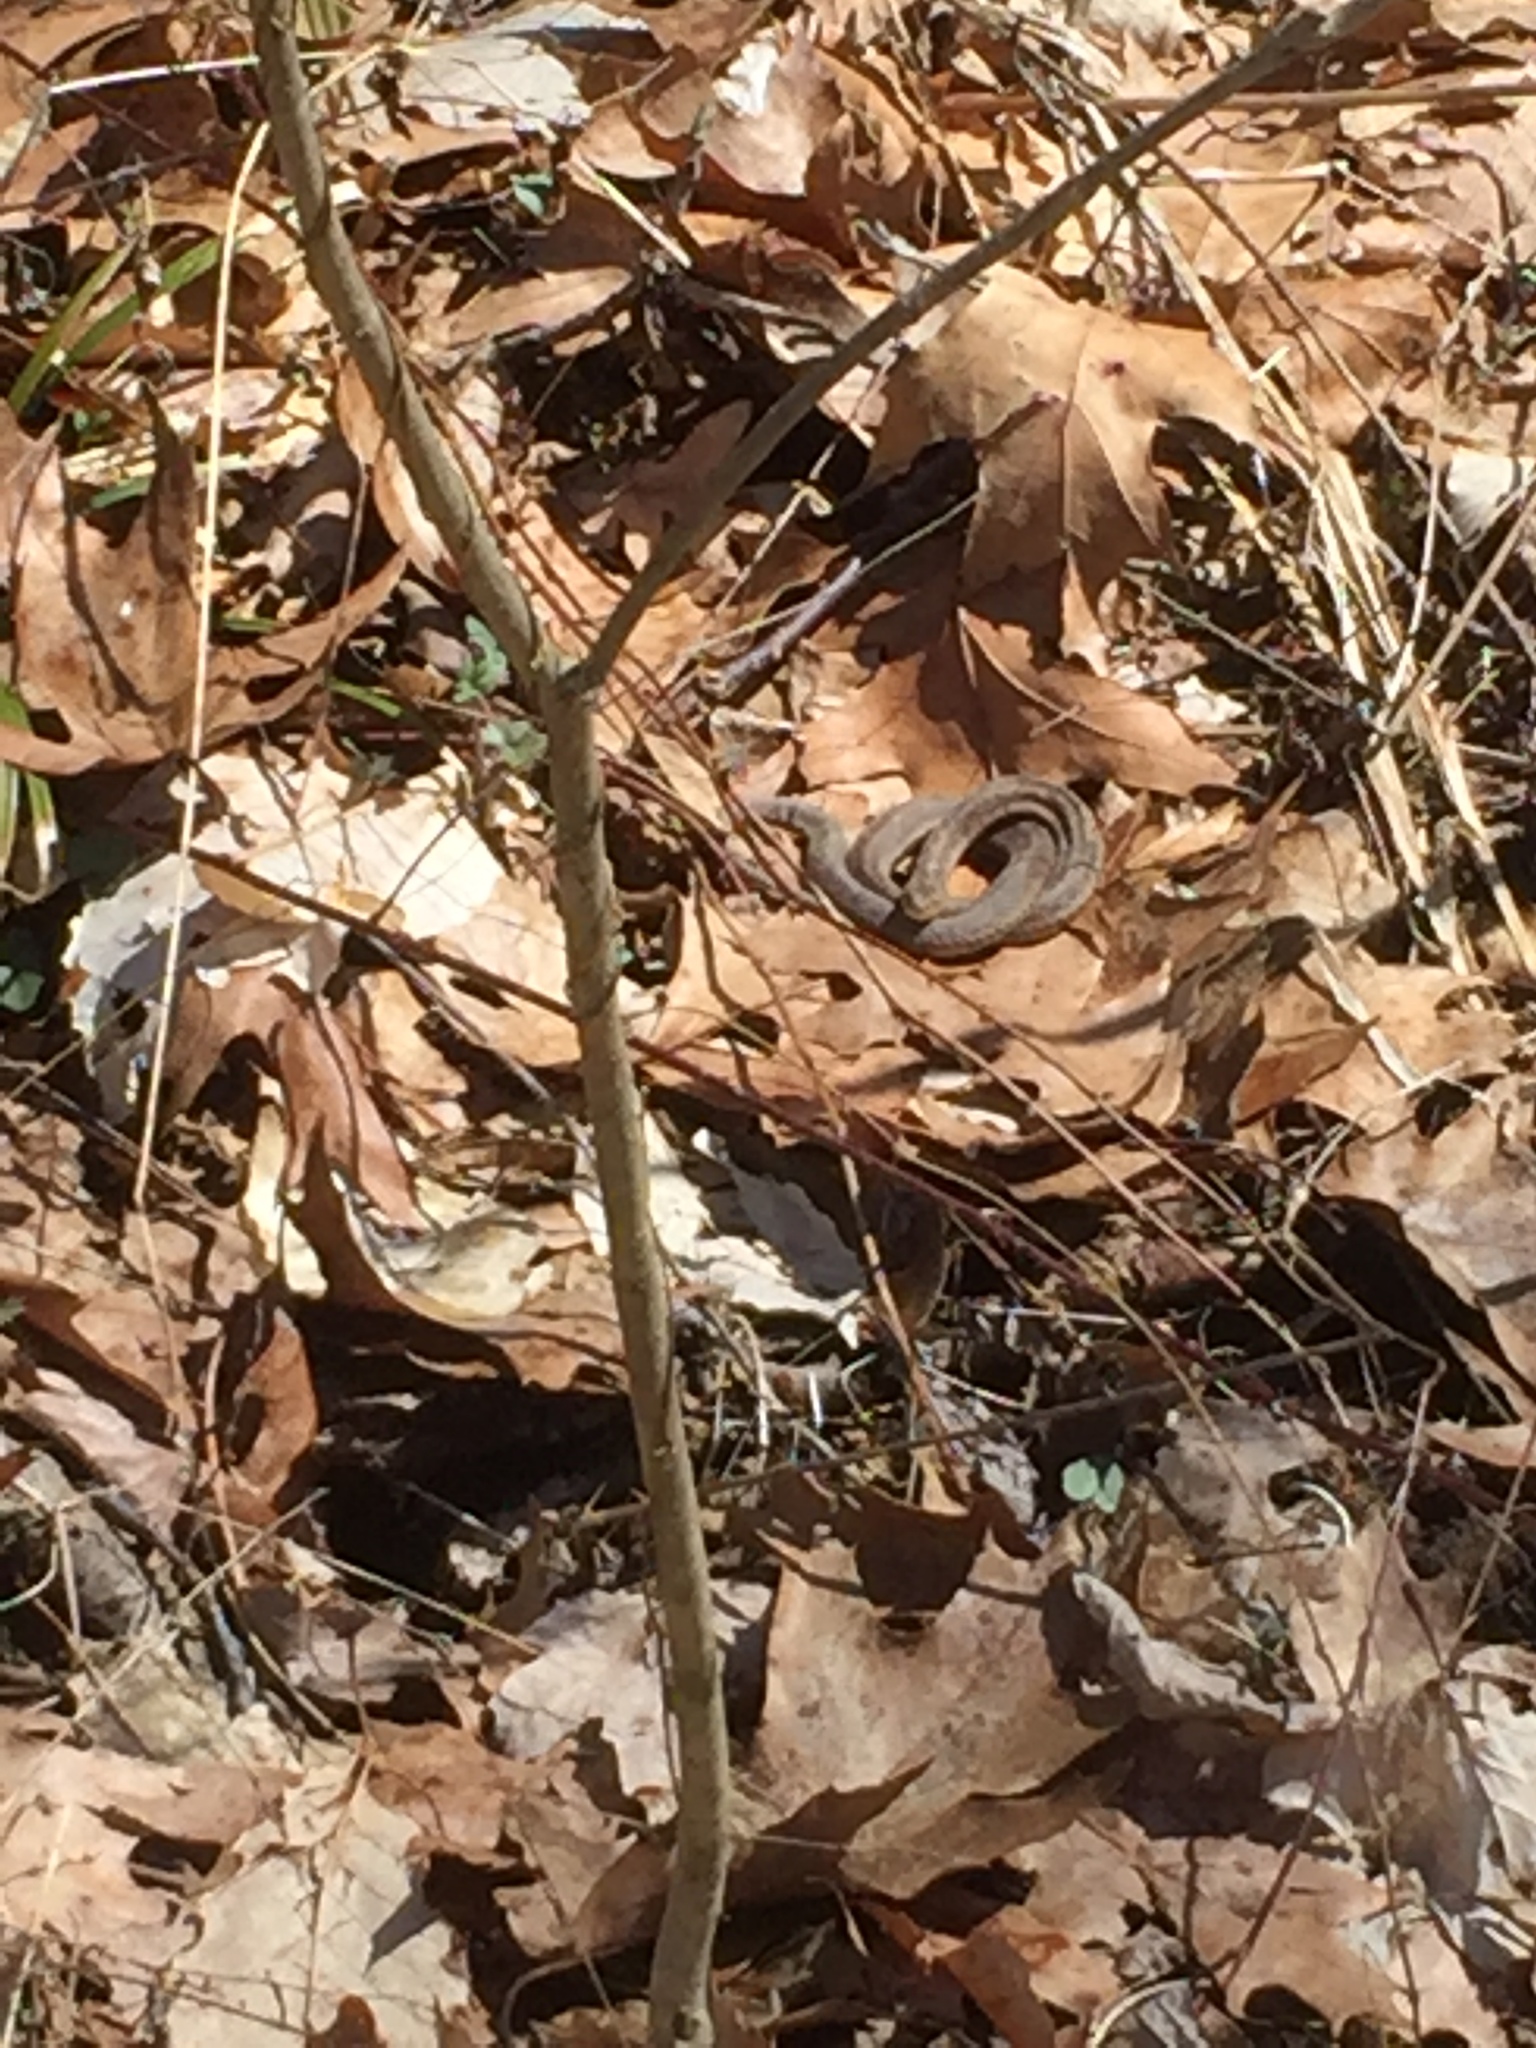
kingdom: Animalia
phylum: Chordata
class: Squamata
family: Colubridae
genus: Thamnophis
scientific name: Thamnophis sirtalis
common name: Common garter snake
